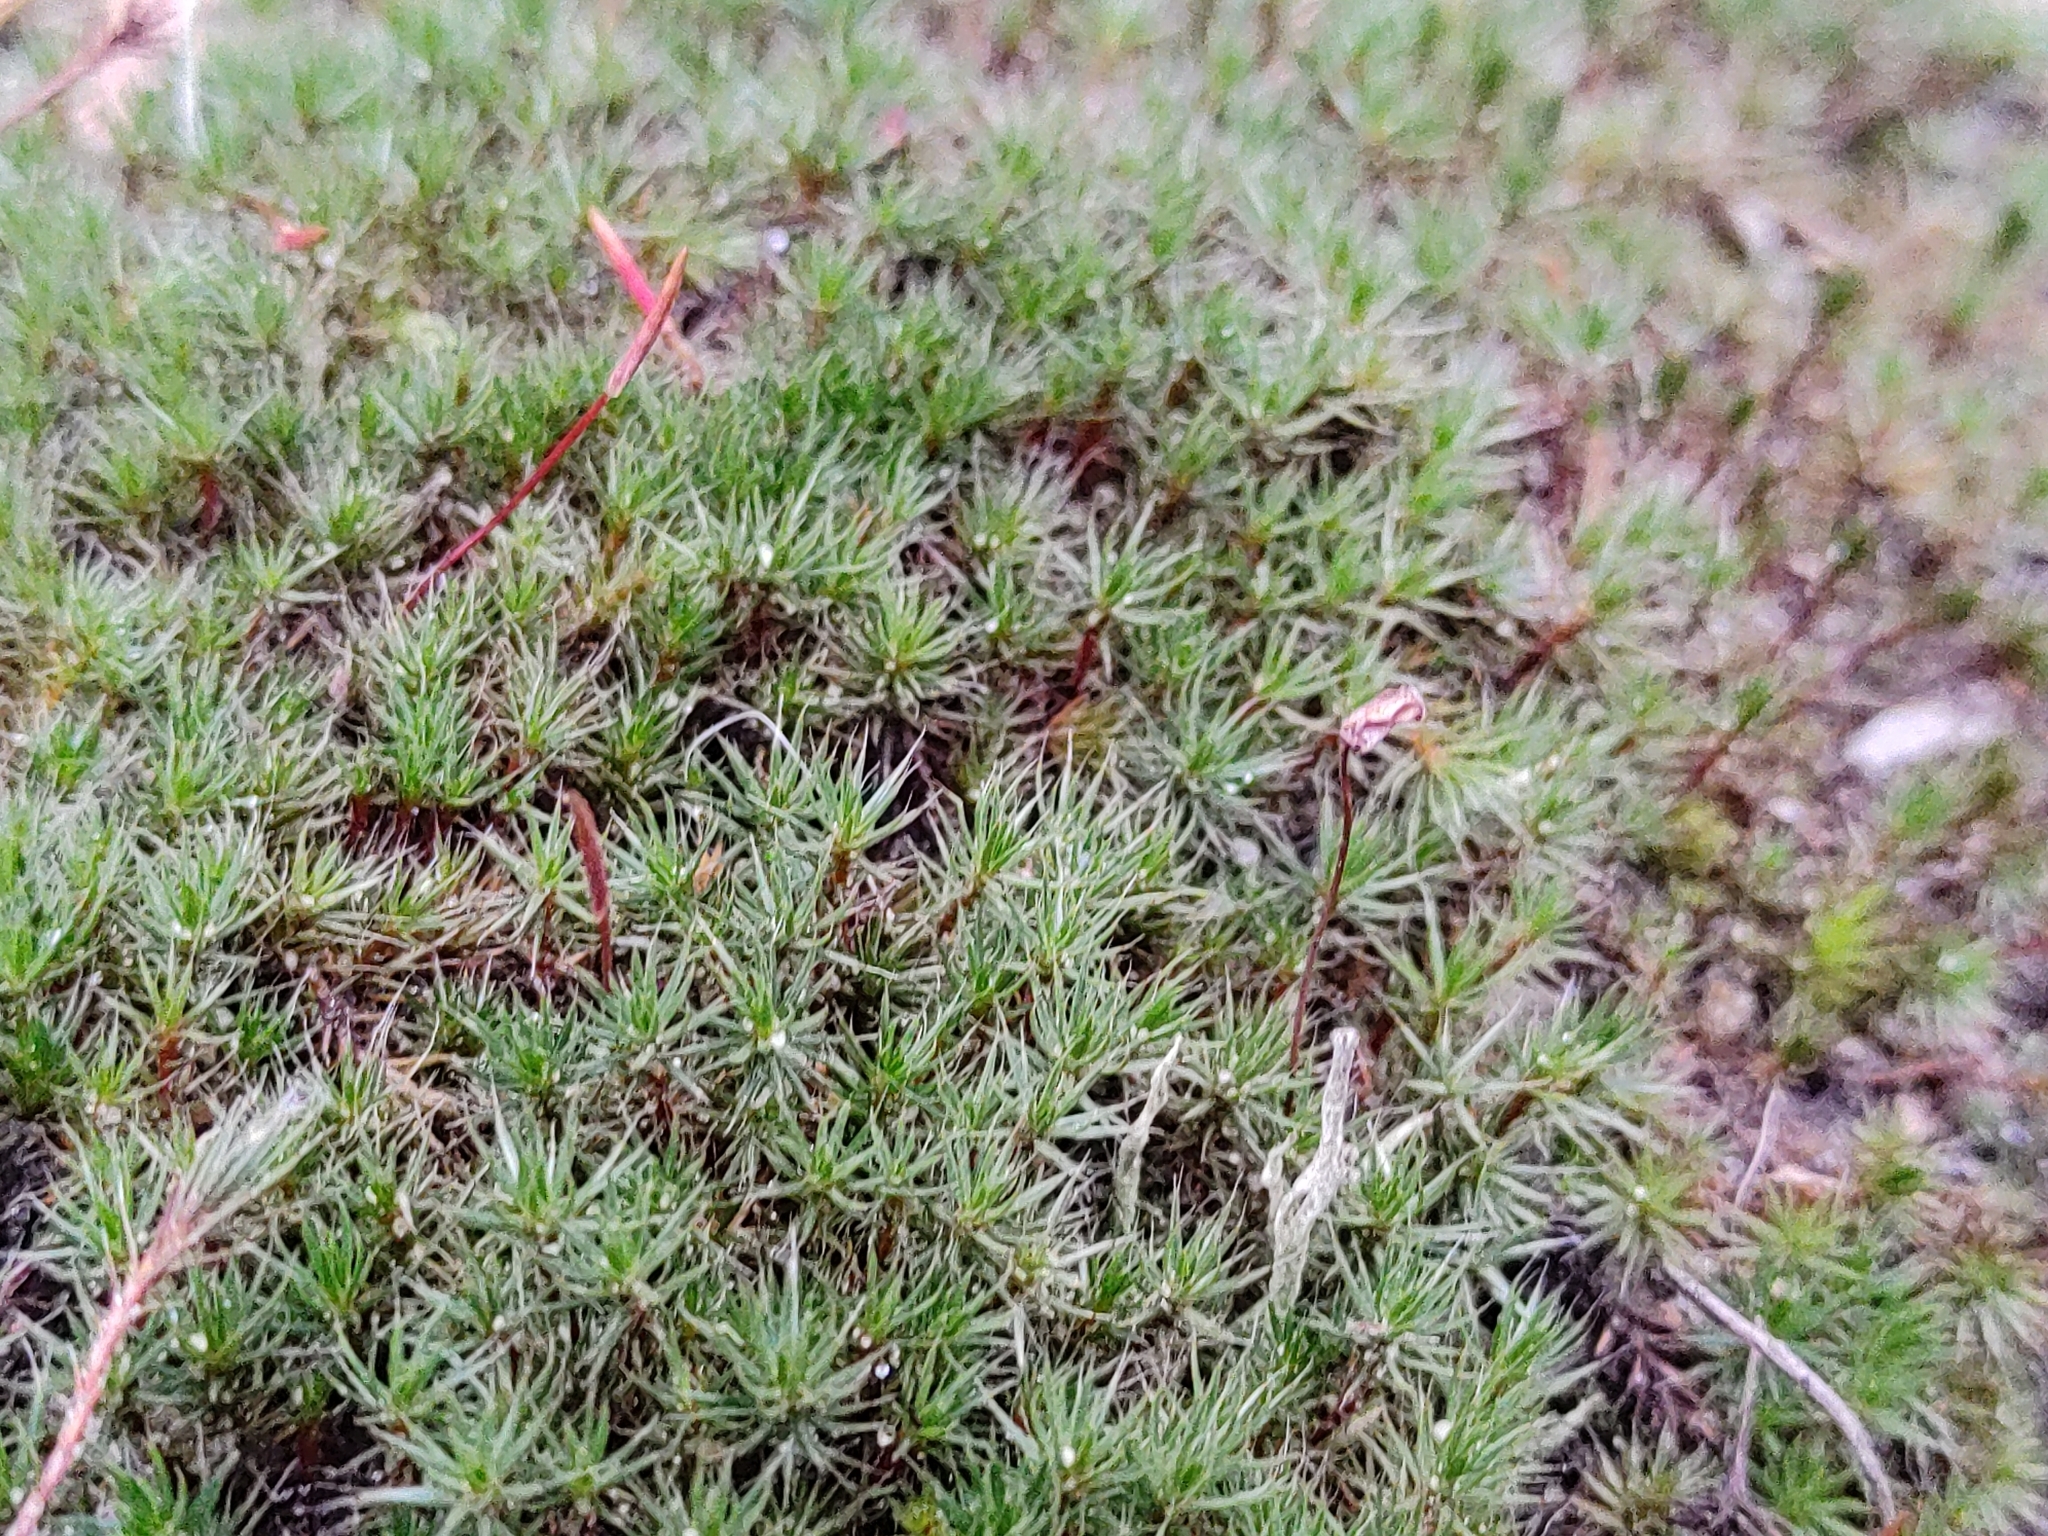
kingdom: Plantae
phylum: Bryophyta
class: Polytrichopsida
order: Polytrichales
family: Polytrichaceae
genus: Polytrichum
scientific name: Polytrichum piliferum
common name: Bristly haircap
